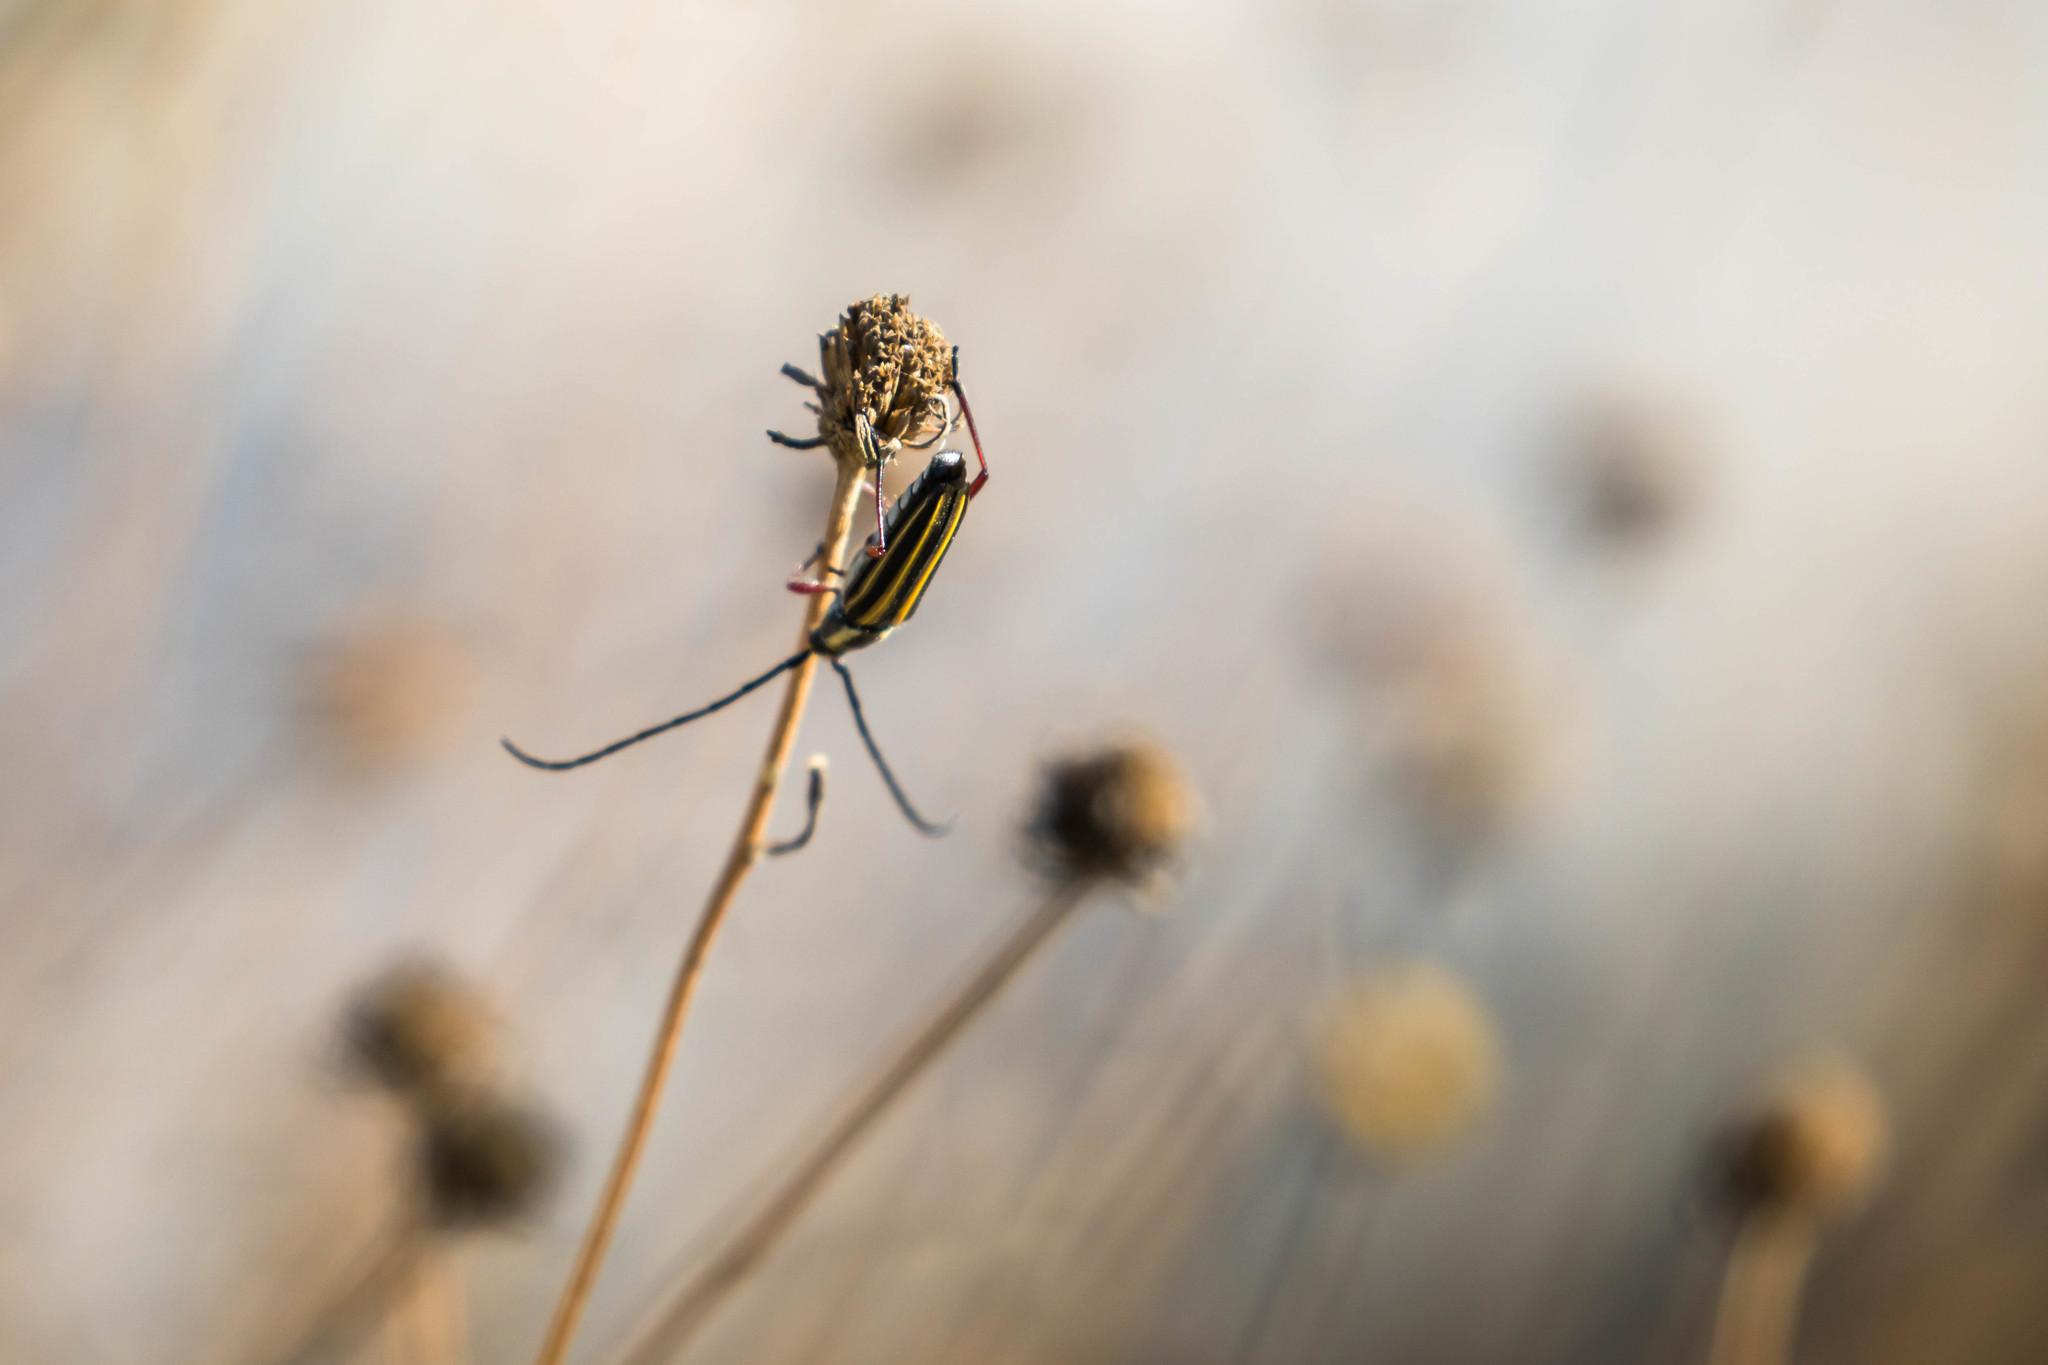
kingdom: Animalia
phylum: Arthropoda
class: Insecta
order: Coleoptera
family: Cerambycidae
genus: Sphaenothecus
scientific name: Sphaenothecus bilineatus
